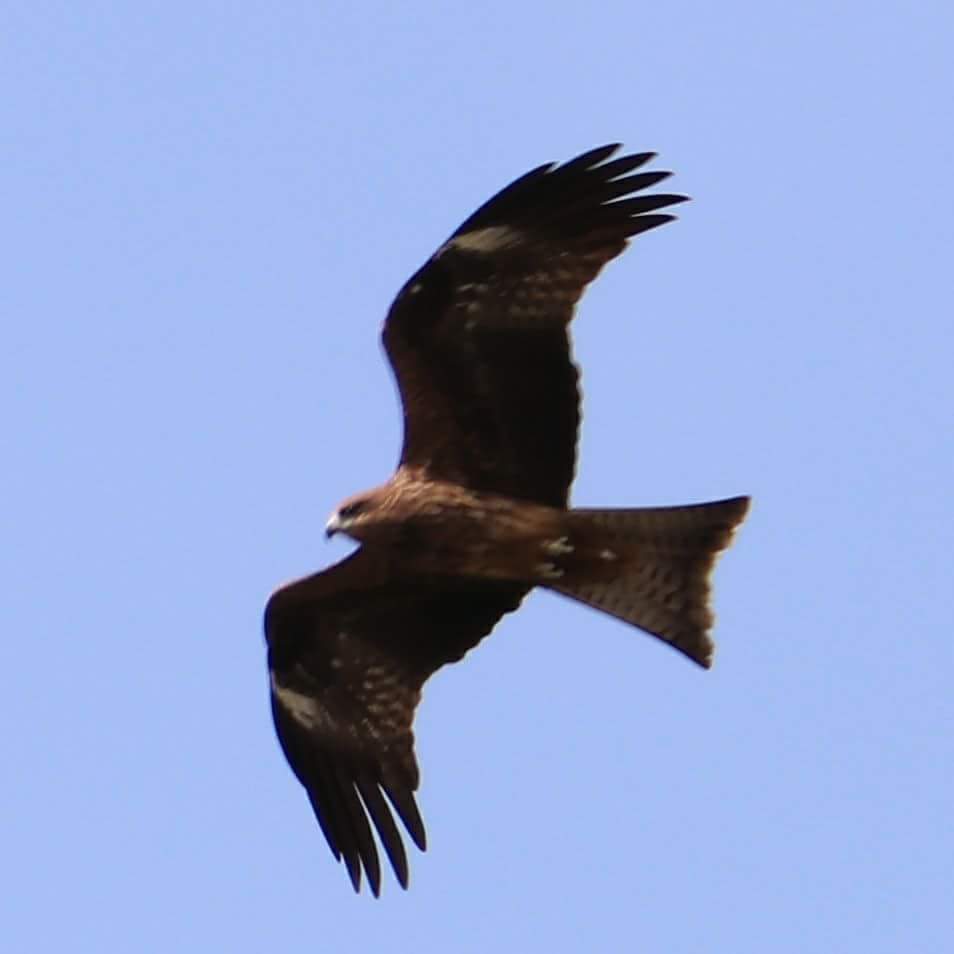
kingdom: Animalia
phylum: Chordata
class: Aves
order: Accipitriformes
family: Accipitridae
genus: Milvus
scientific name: Milvus migrans
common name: Black kite
